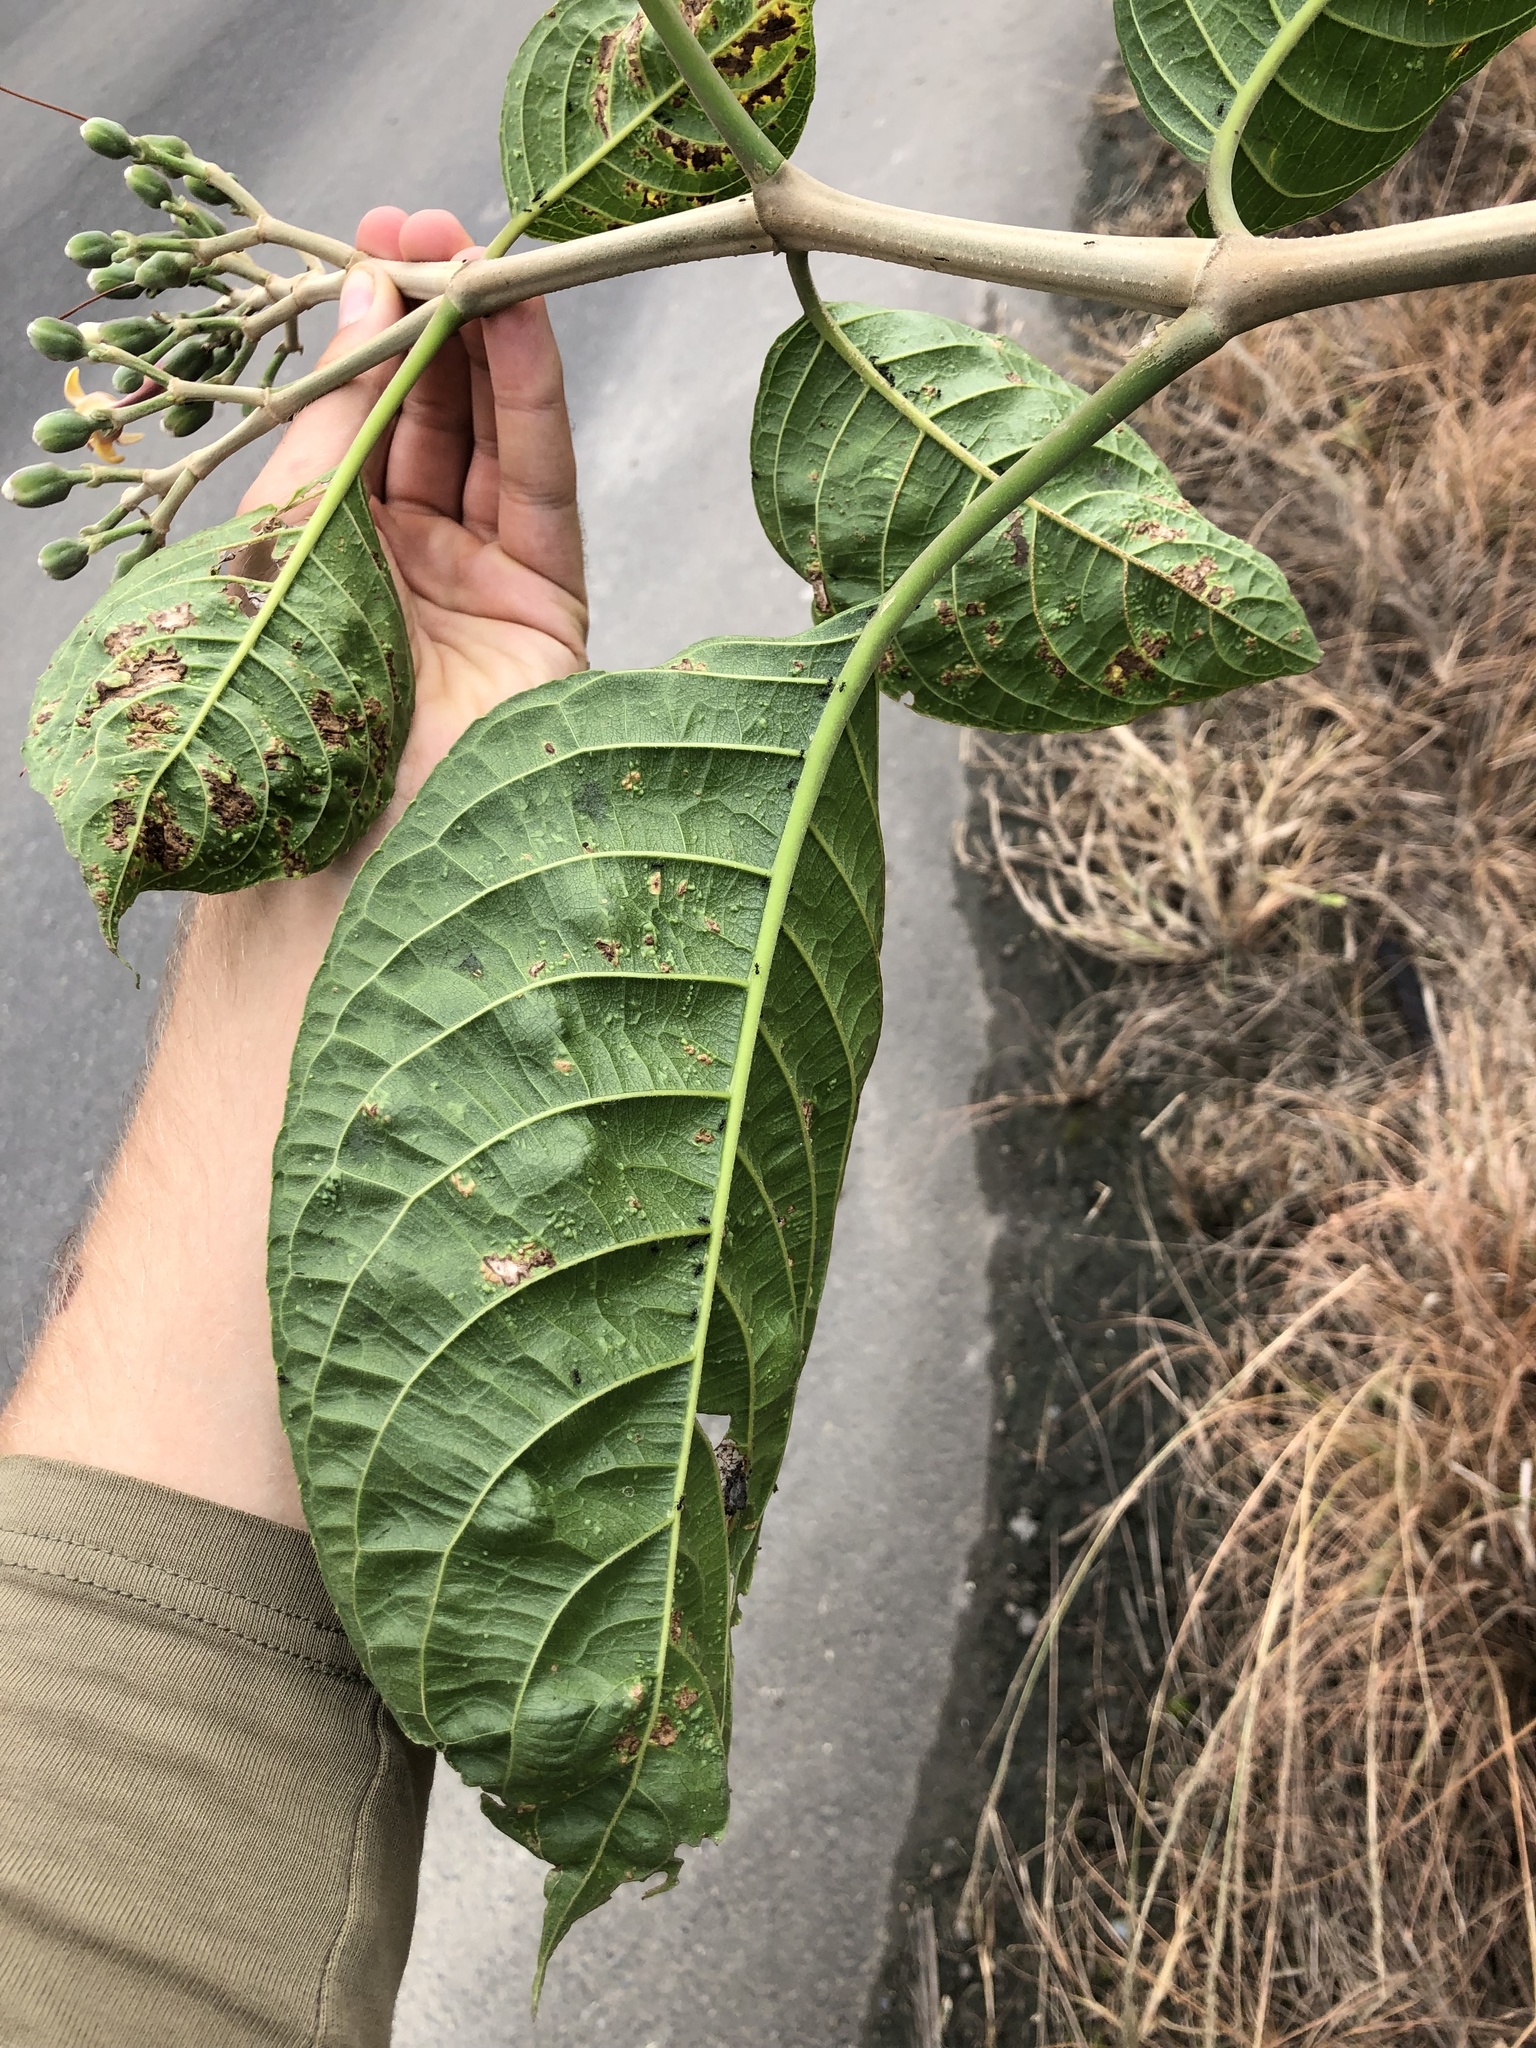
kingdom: Plantae
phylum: Tracheophyta
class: Magnoliopsida
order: Lamiales
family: Acanthaceae
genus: Trichanthera
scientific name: Trichanthera gigantea
